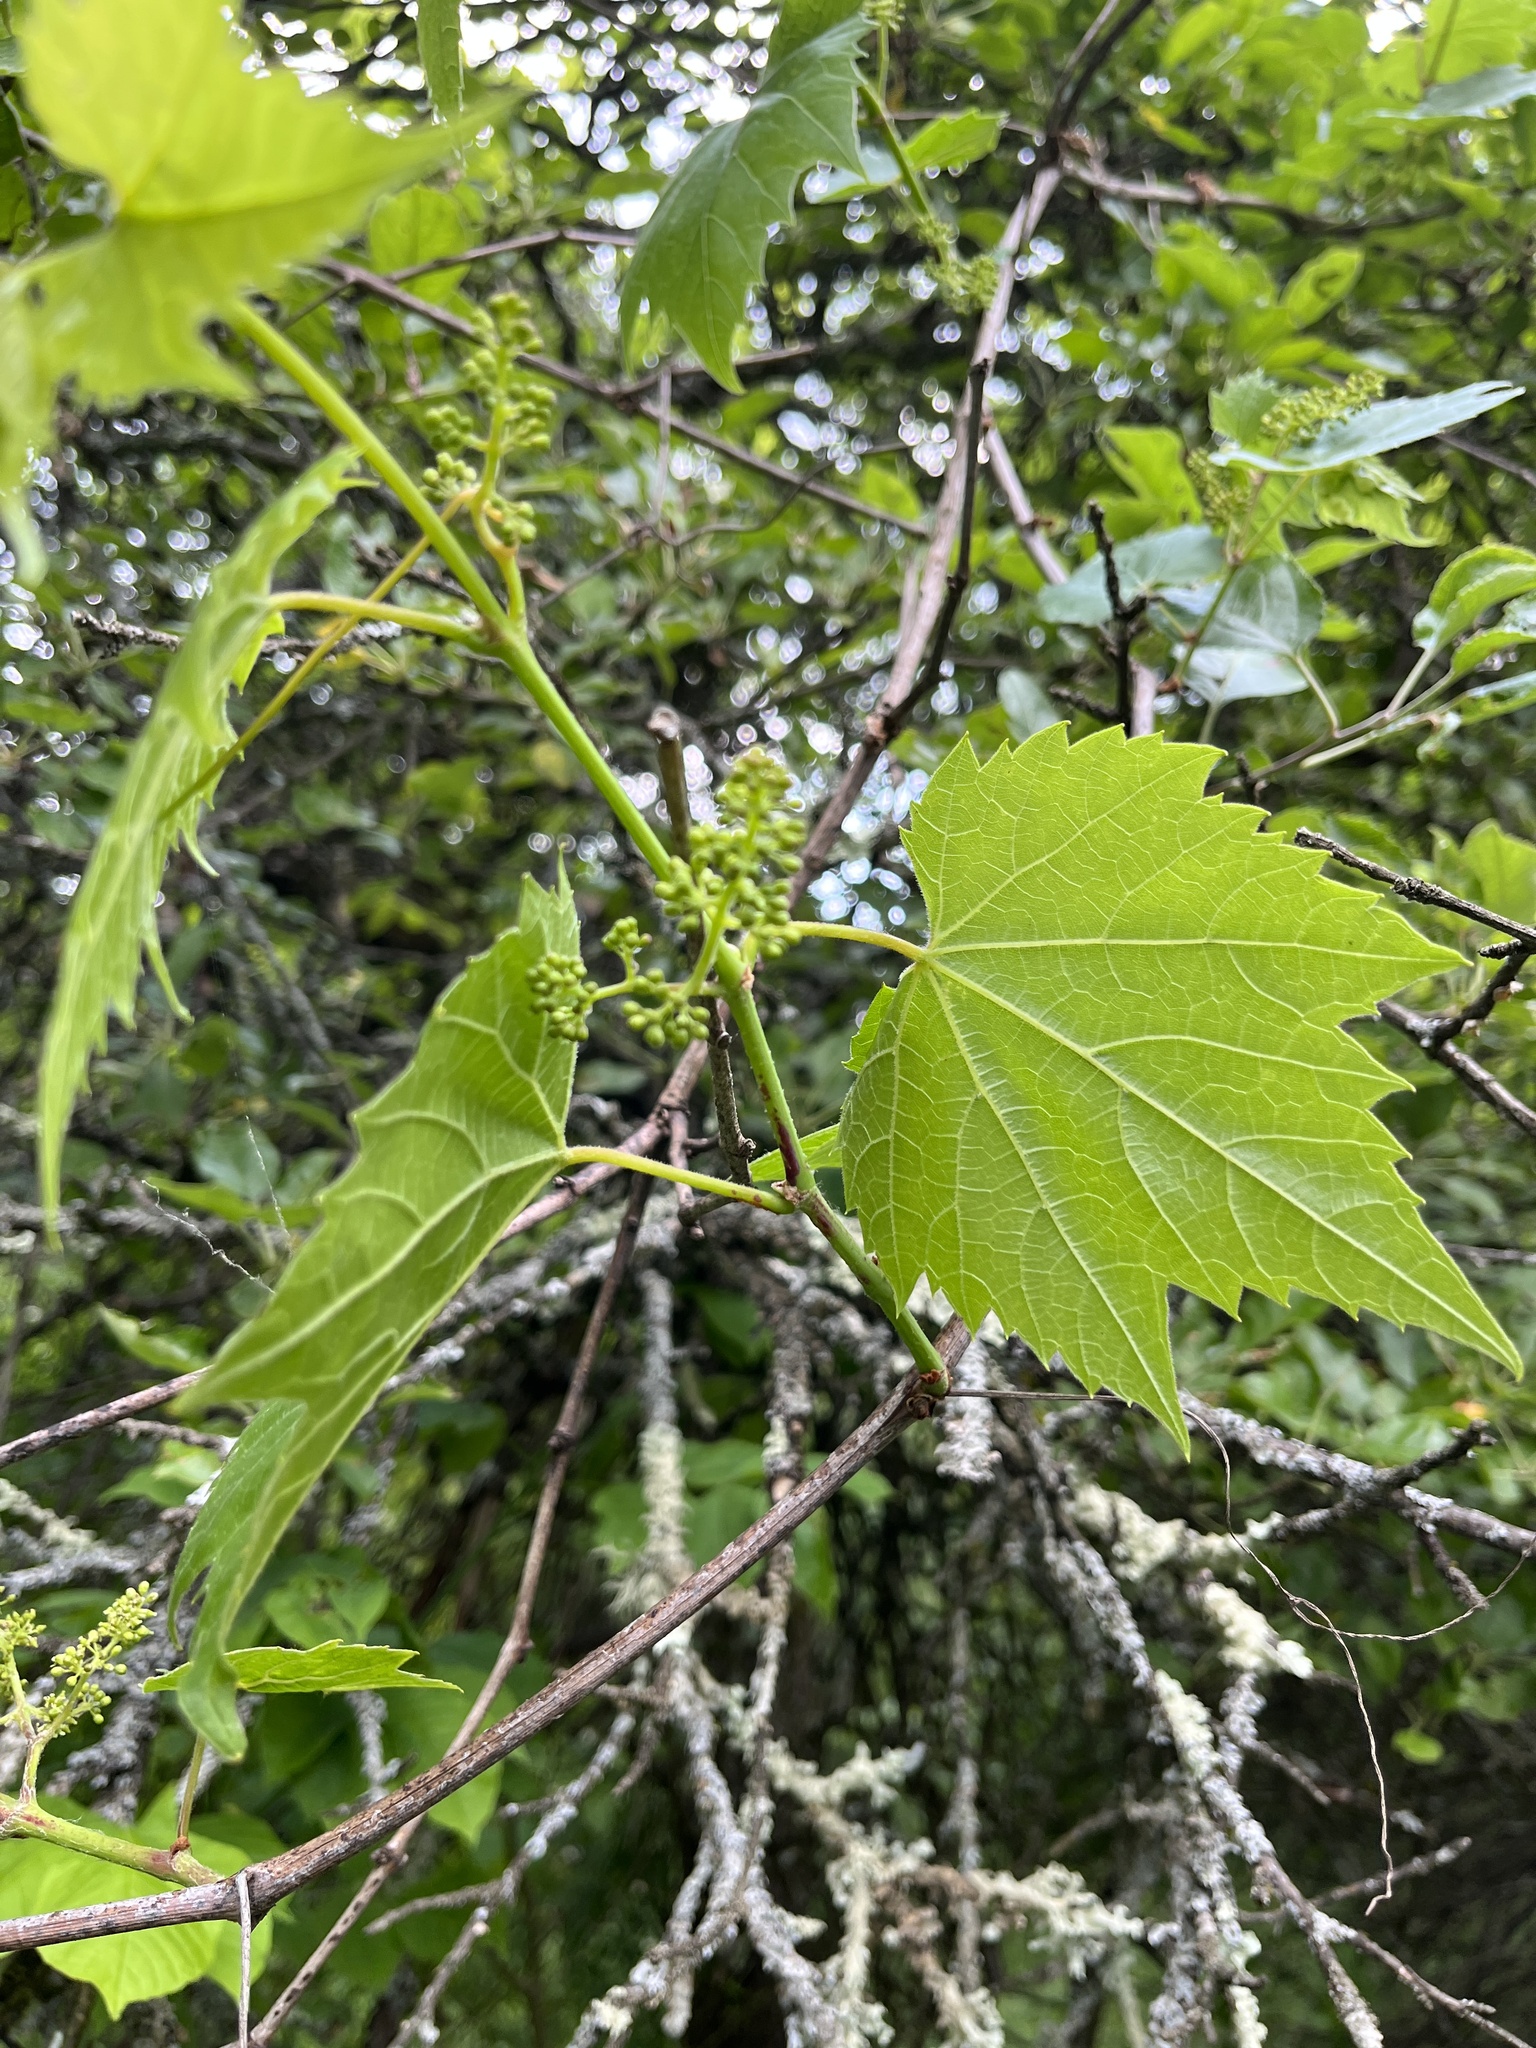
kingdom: Plantae
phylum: Tracheophyta
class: Magnoliopsida
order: Vitales
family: Vitaceae
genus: Vitis
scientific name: Vitis riparia
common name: Frost grape
